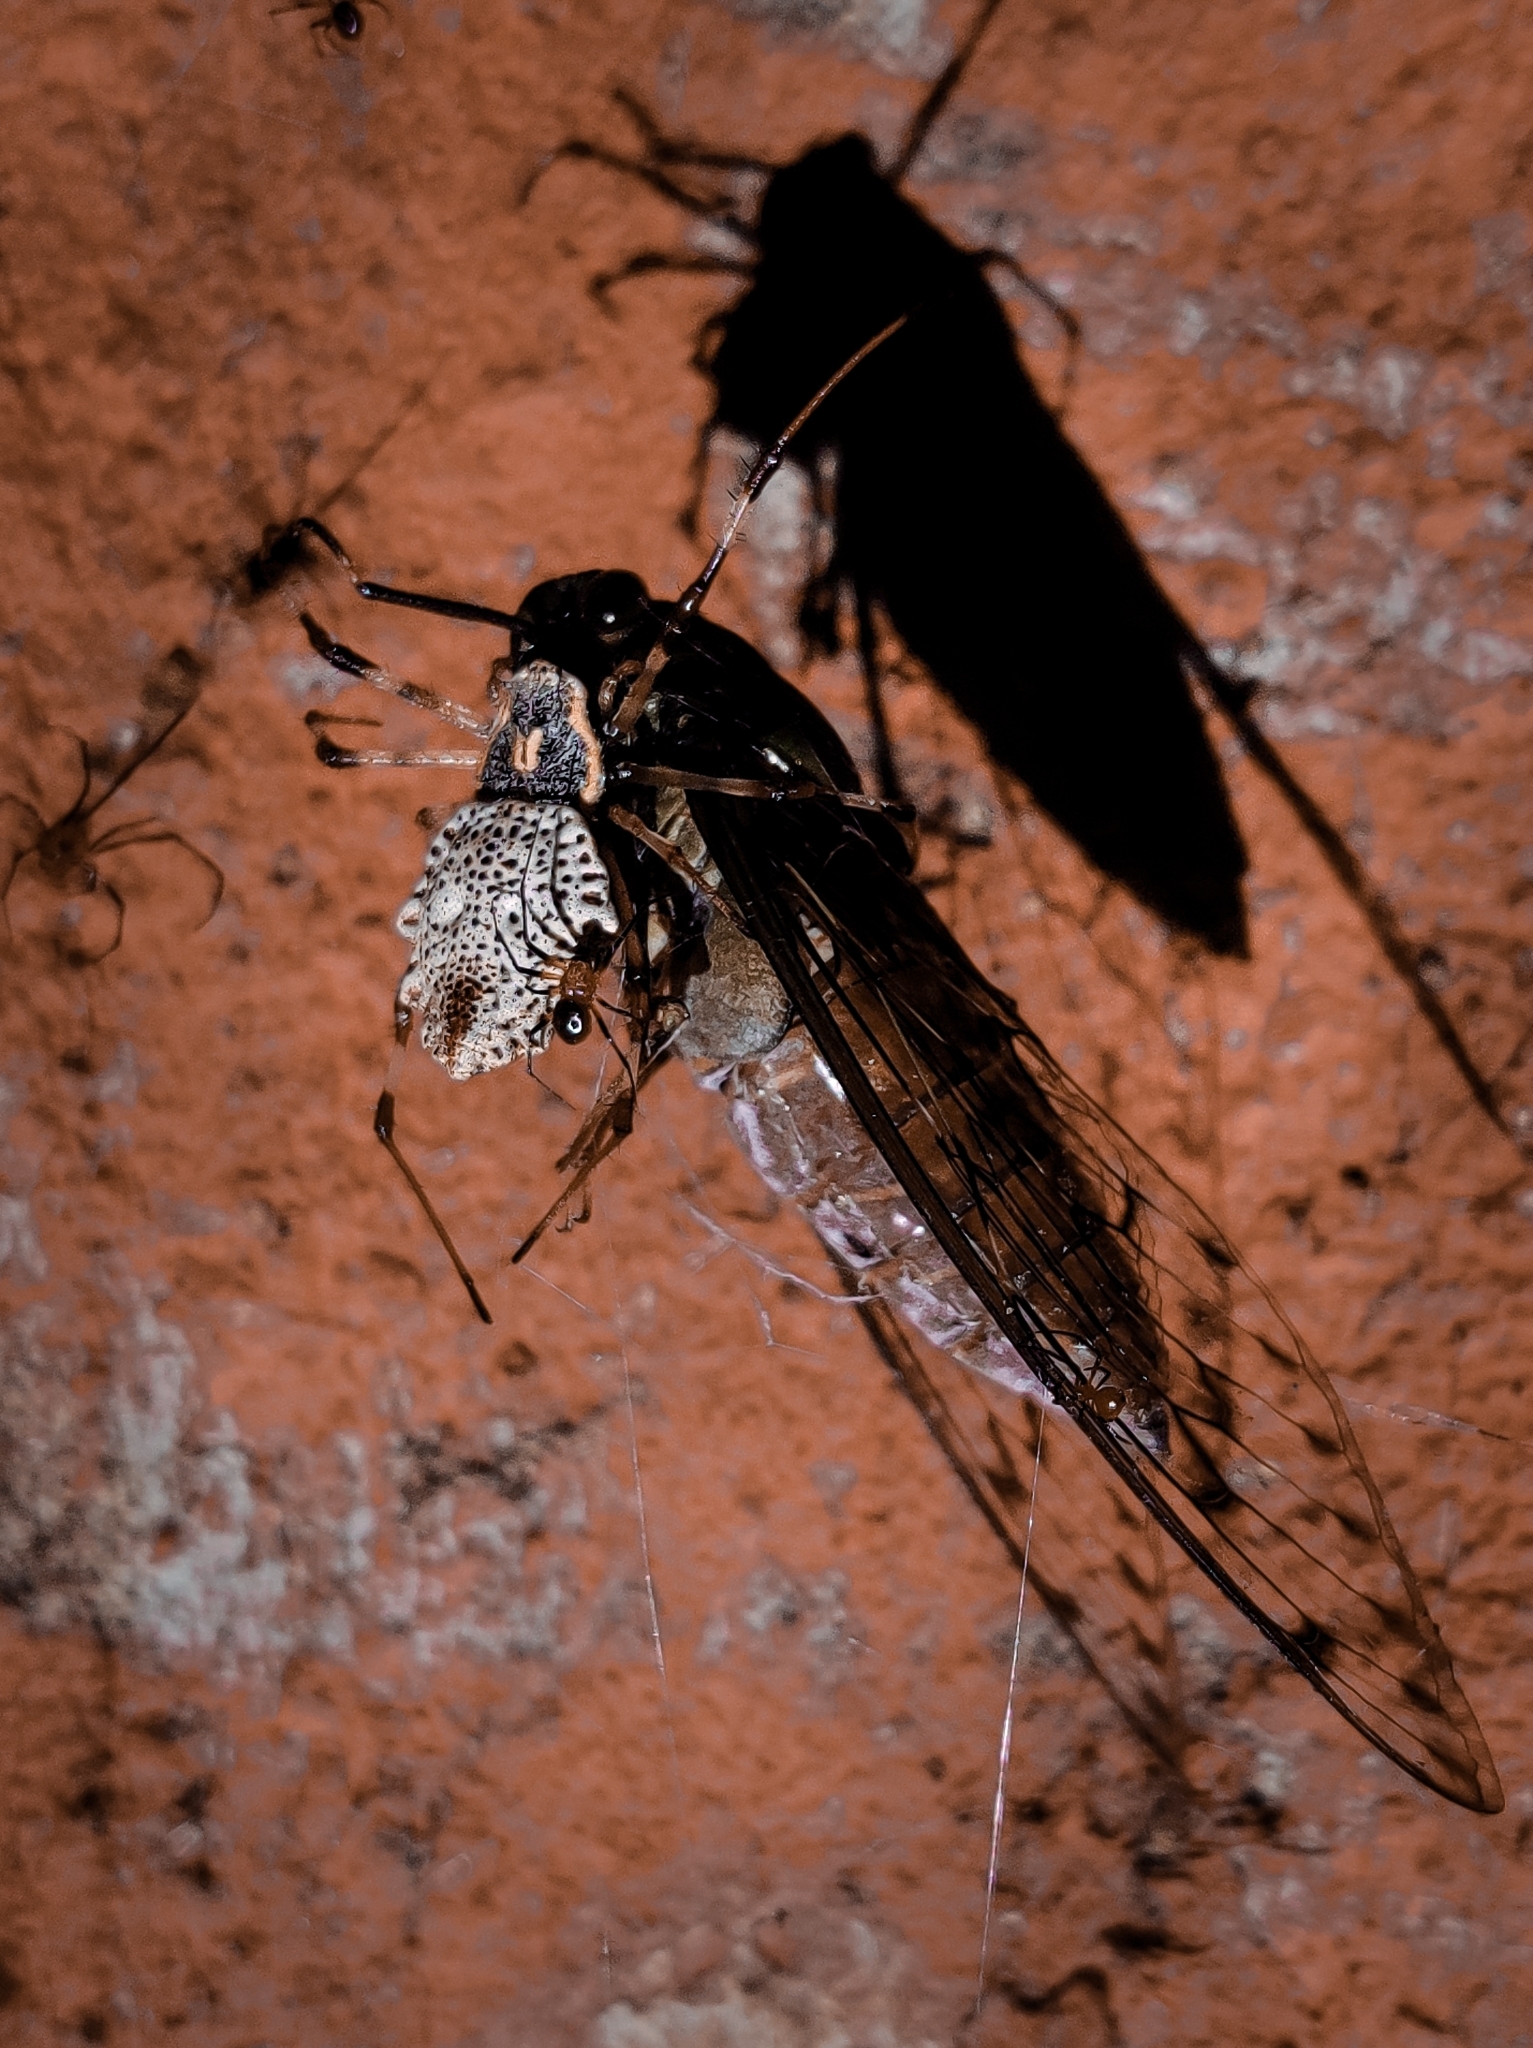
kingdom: Animalia
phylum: Arthropoda
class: Arachnida
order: Araneae
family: Araneidae
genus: Herennia
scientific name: Herennia multipuncta
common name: Spotted coin spider
